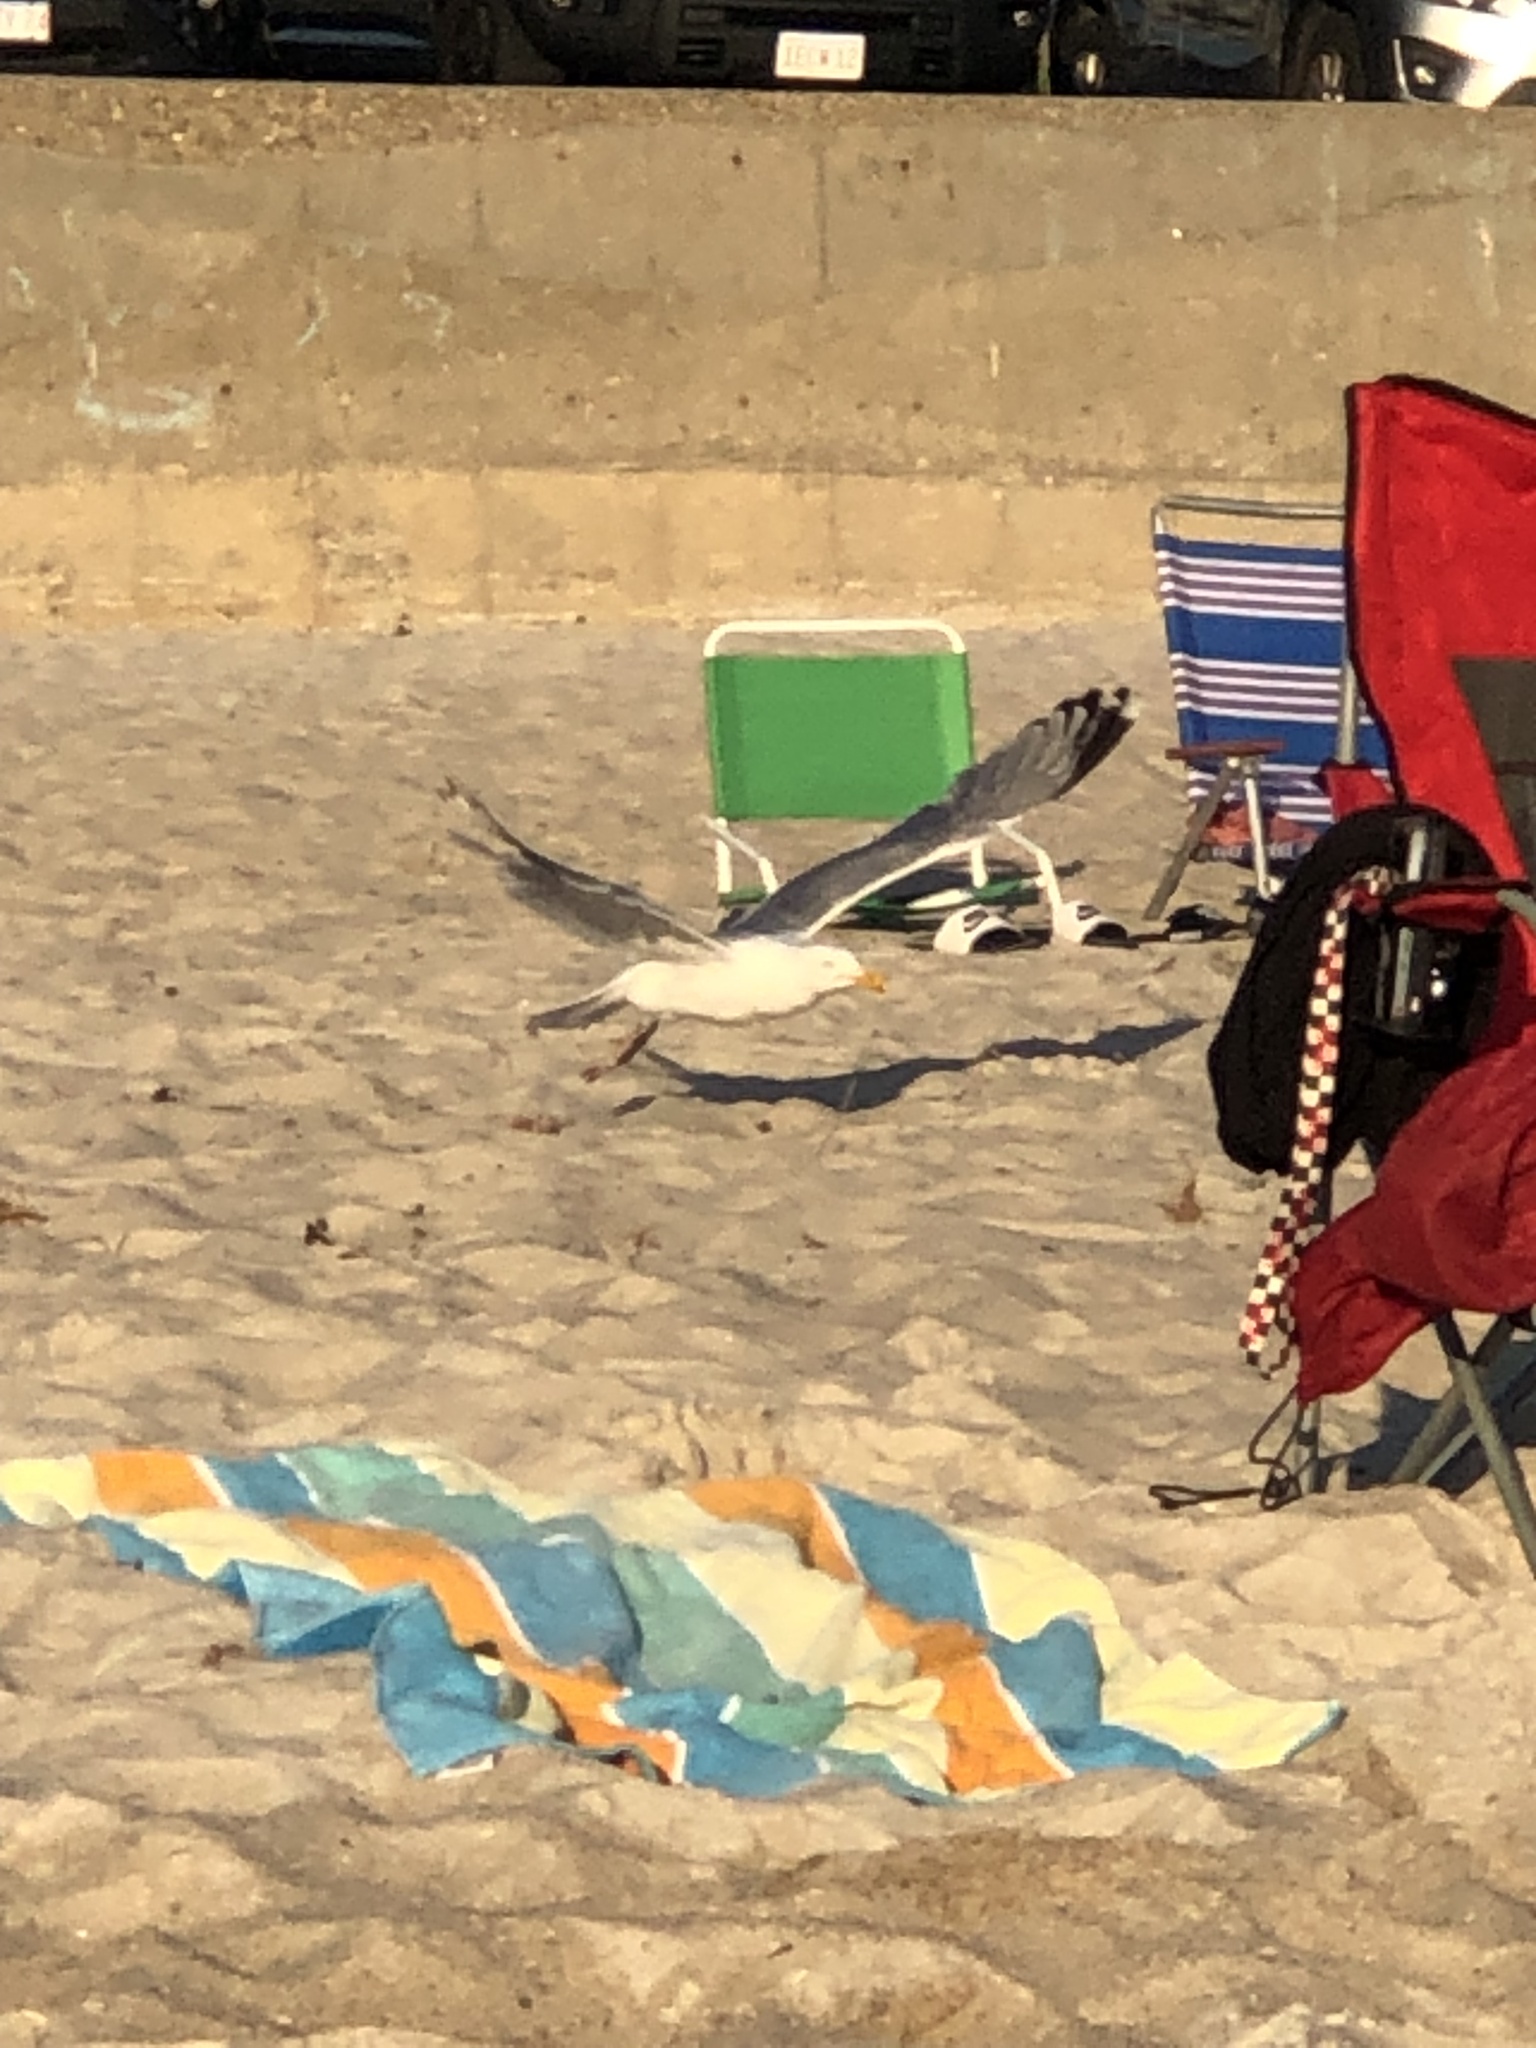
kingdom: Animalia
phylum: Chordata
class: Aves
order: Charadriiformes
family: Laridae
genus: Larus
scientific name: Larus argentatus
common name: Herring gull
